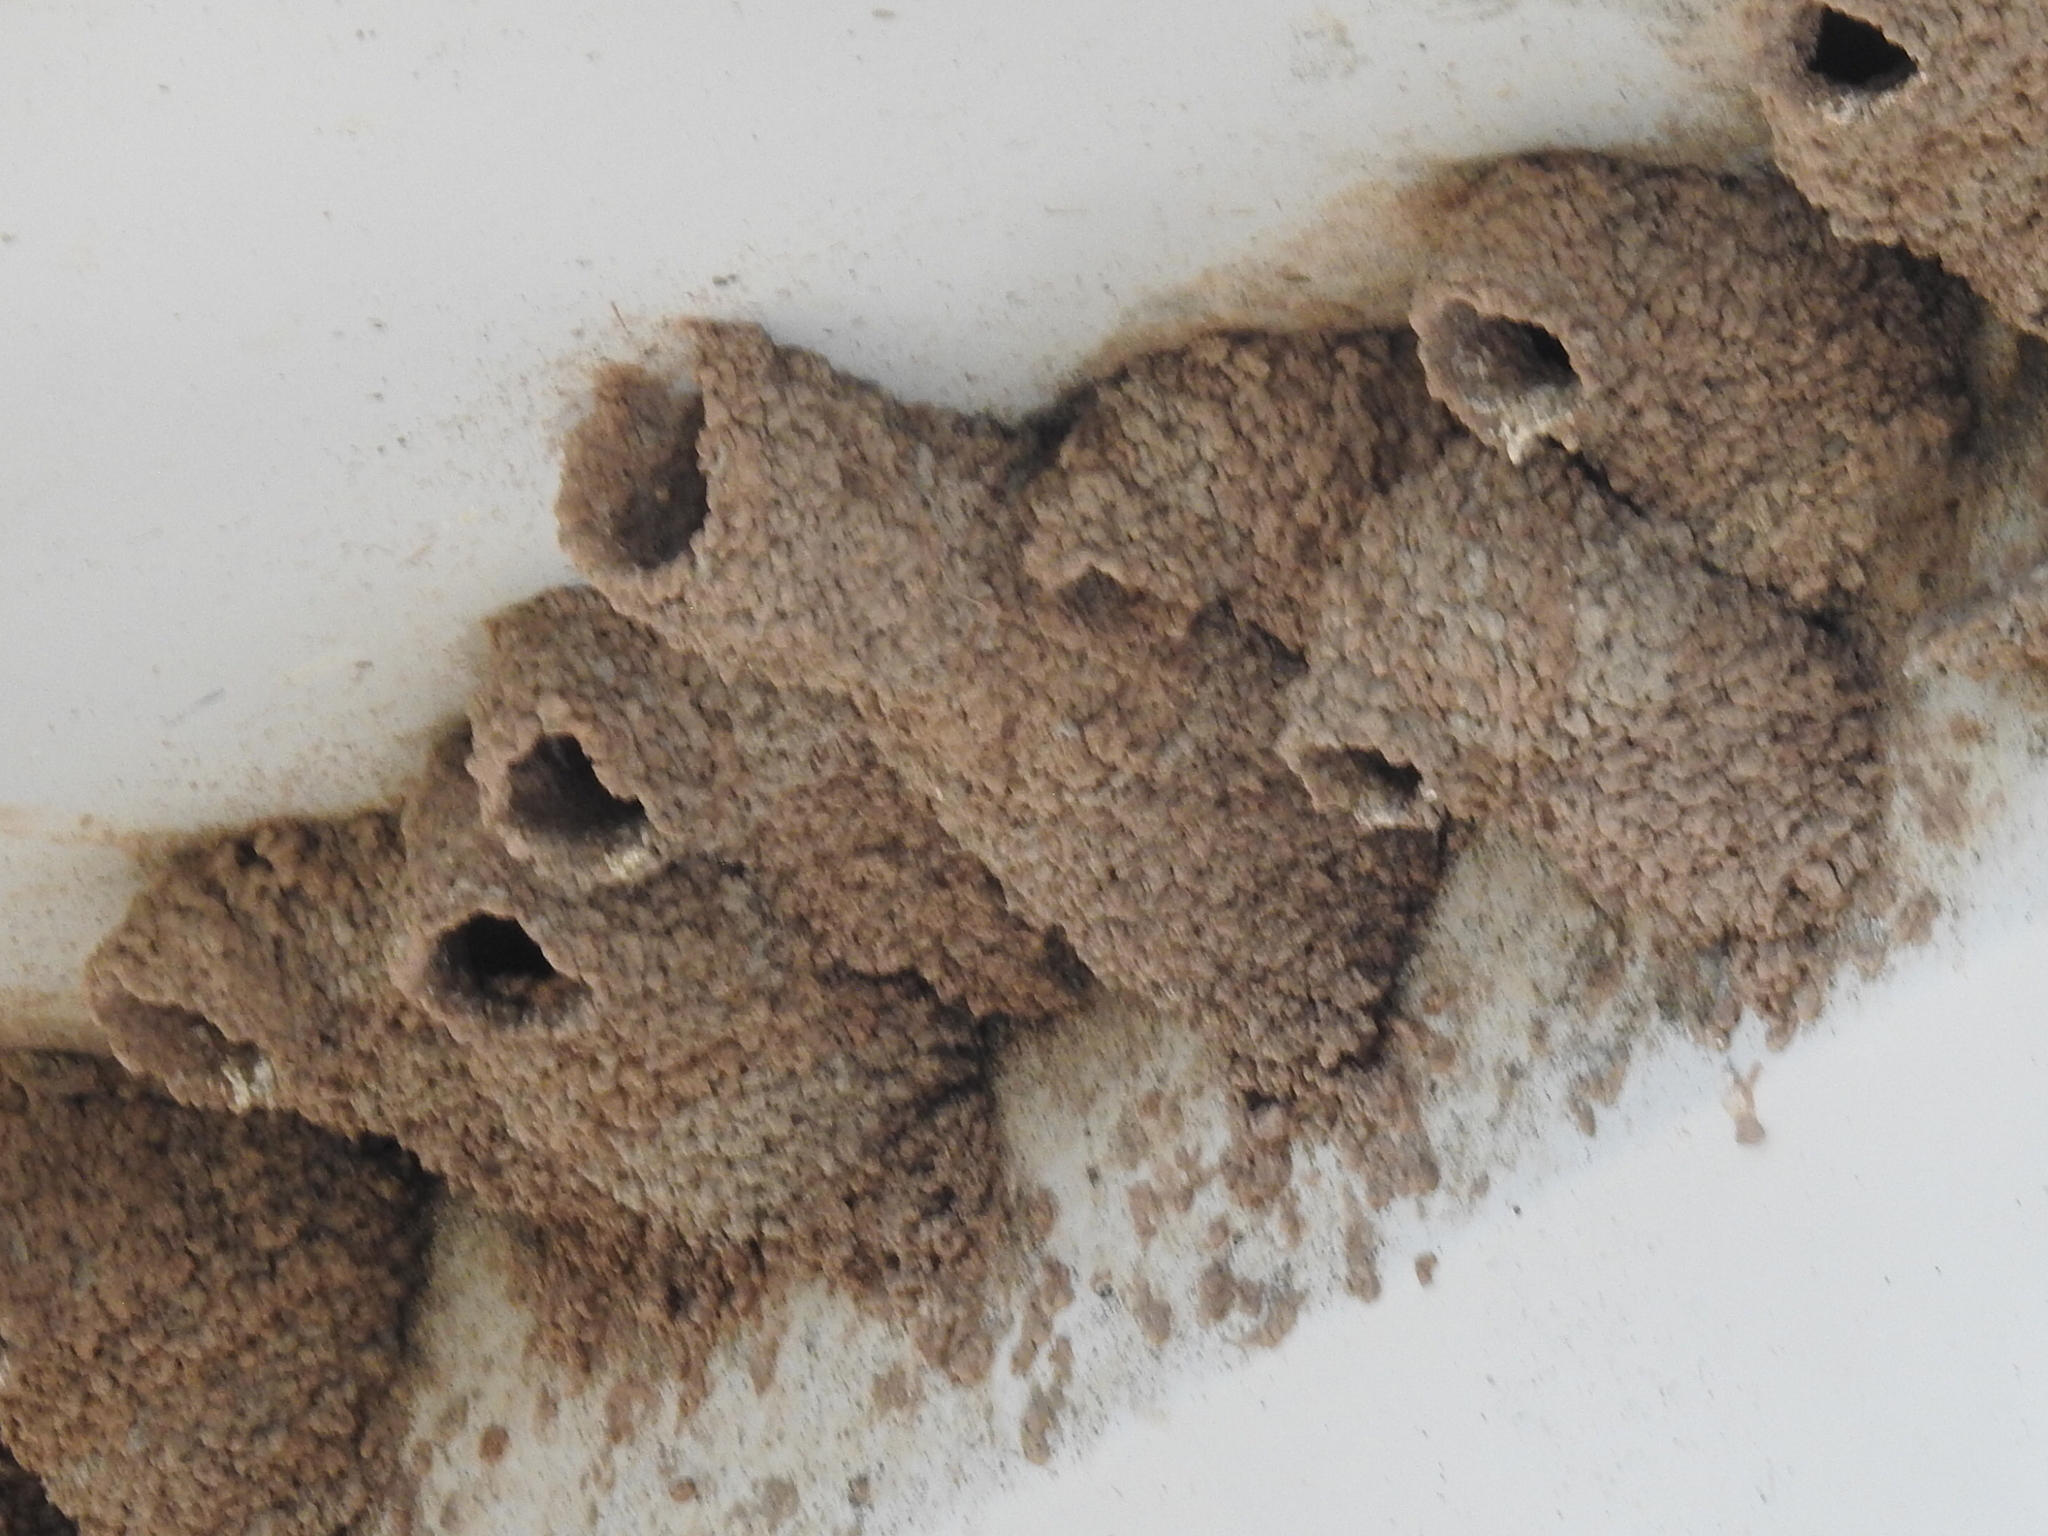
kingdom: Animalia
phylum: Chordata
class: Aves
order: Passeriformes
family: Hirundinidae
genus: Petrochelidon
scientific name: Petrochelidon pyrrhonota
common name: American cliff swallow
